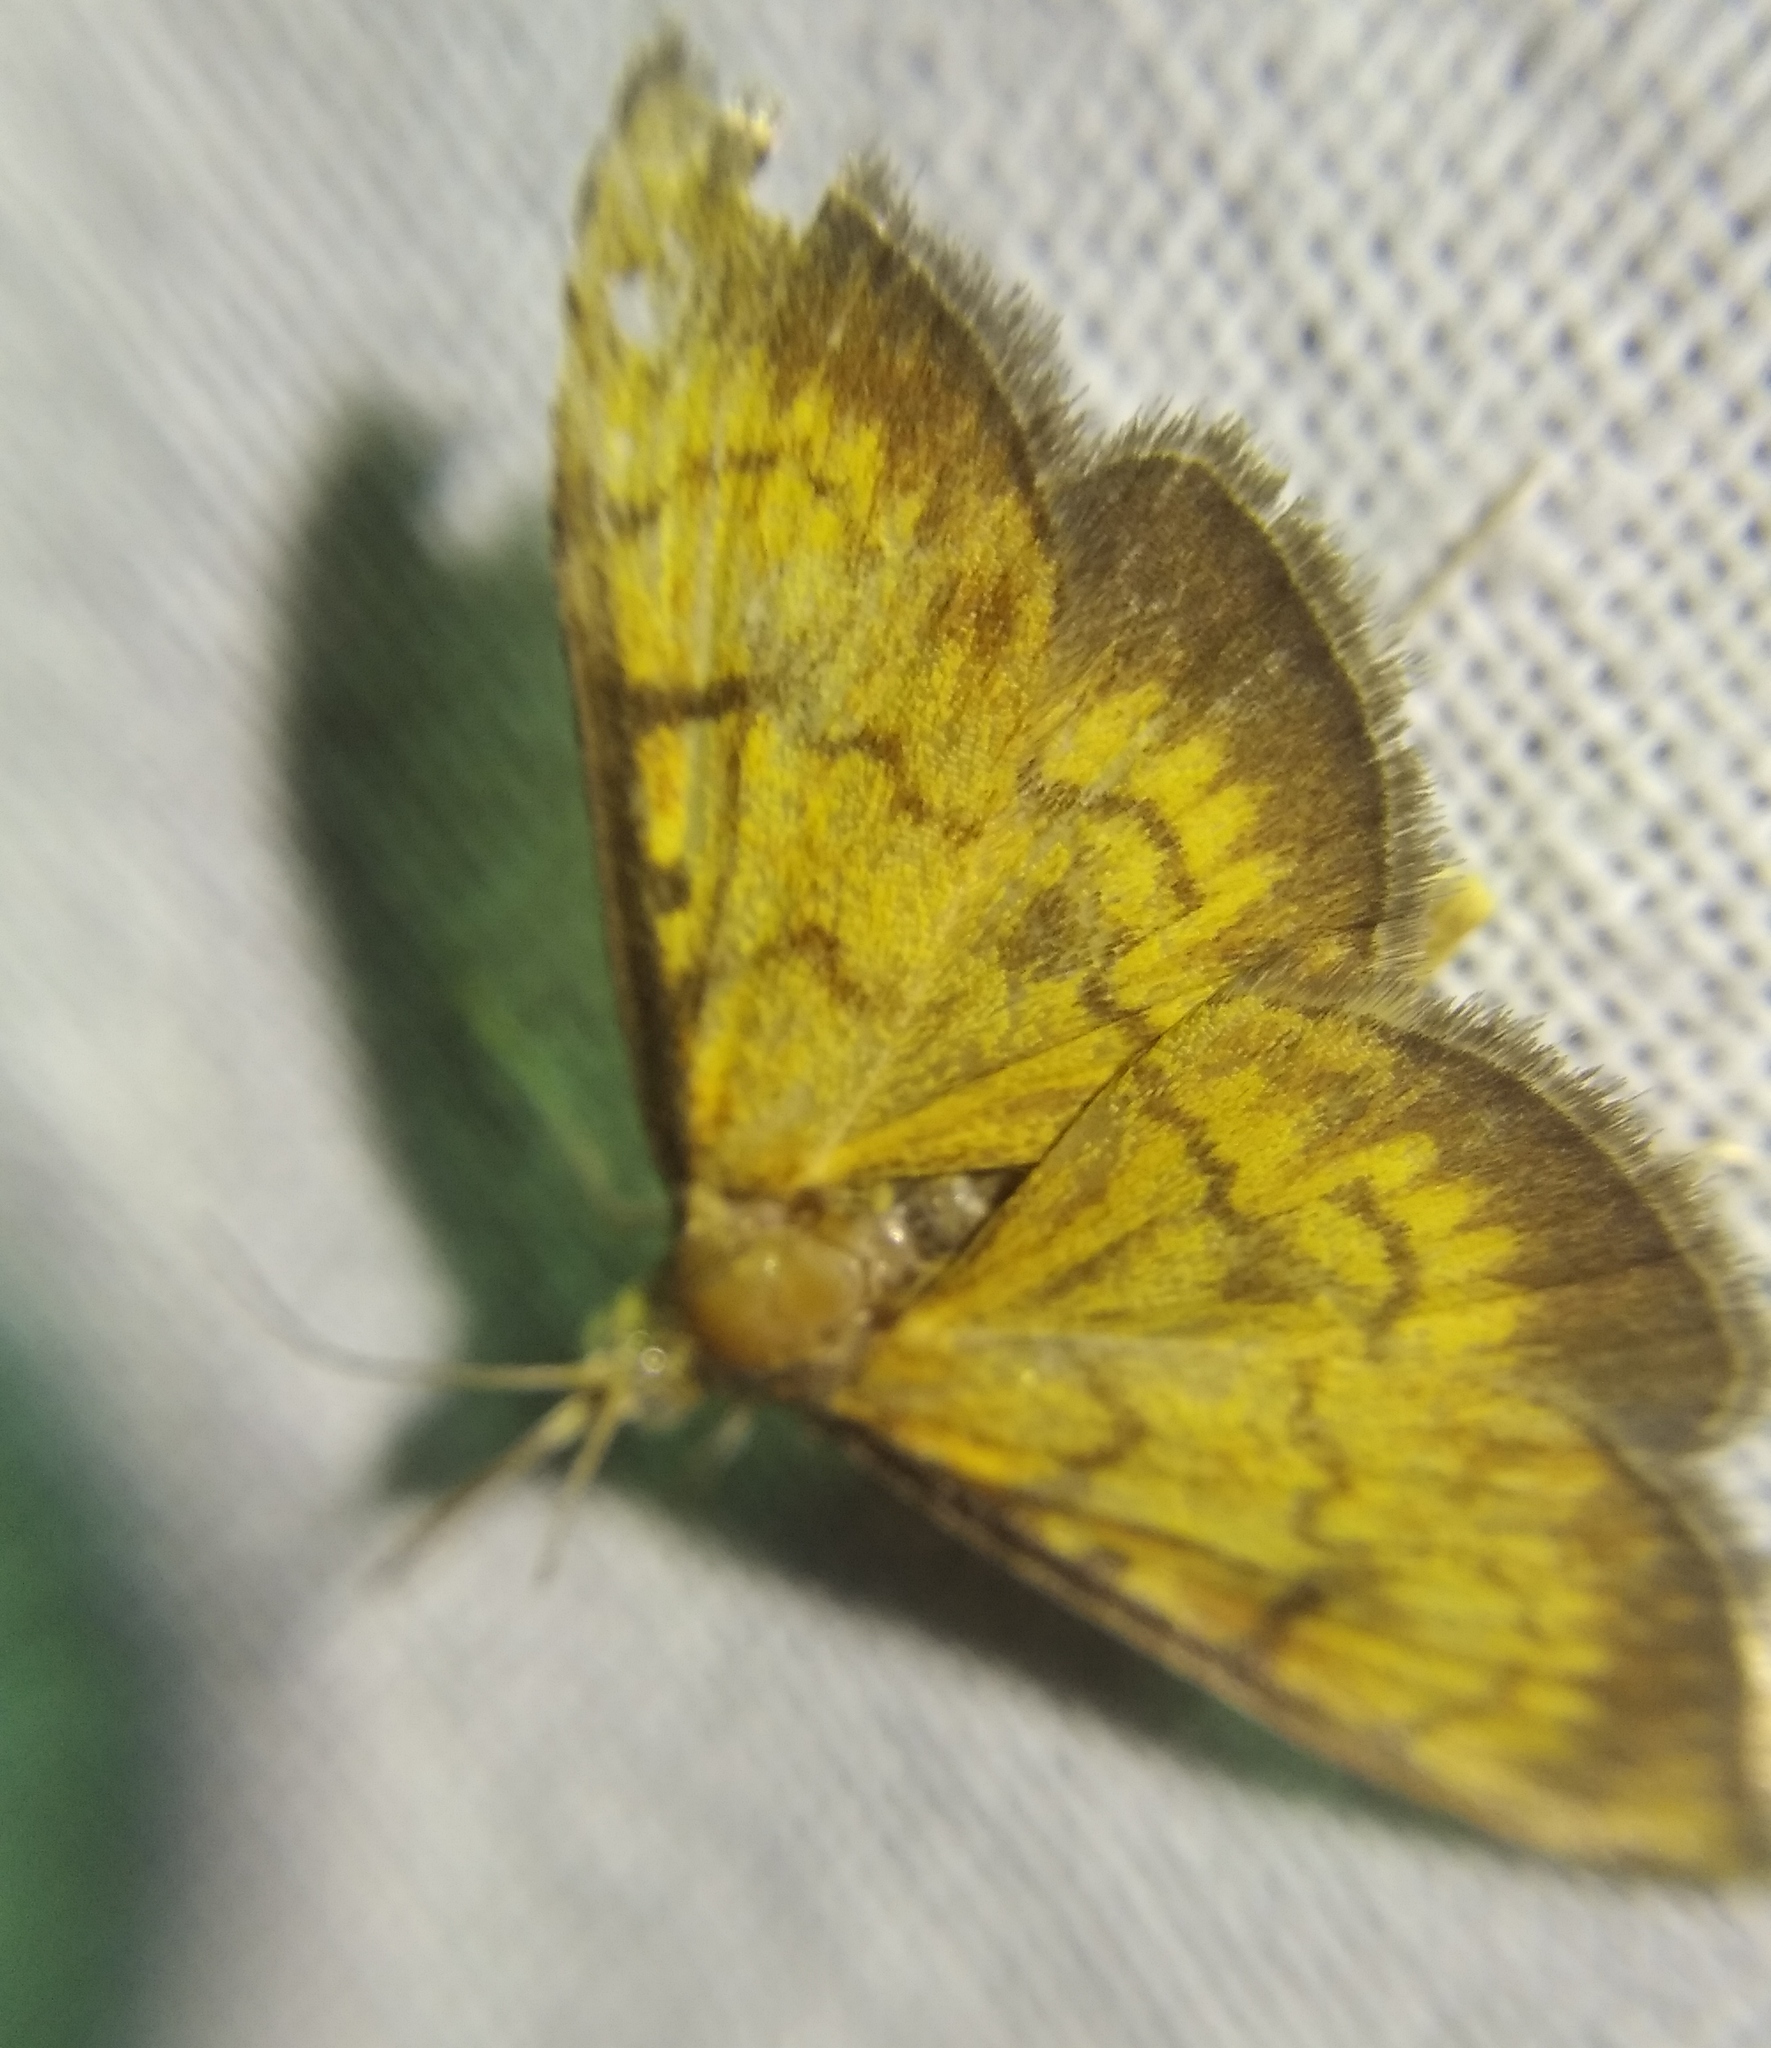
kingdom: Animalia
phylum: Arthropoda
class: Insecta
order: Lepidoptera
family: Crambidae
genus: Ecpyrrhorrhoe
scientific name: Ecpyrrhorrhoe rubiginalis
